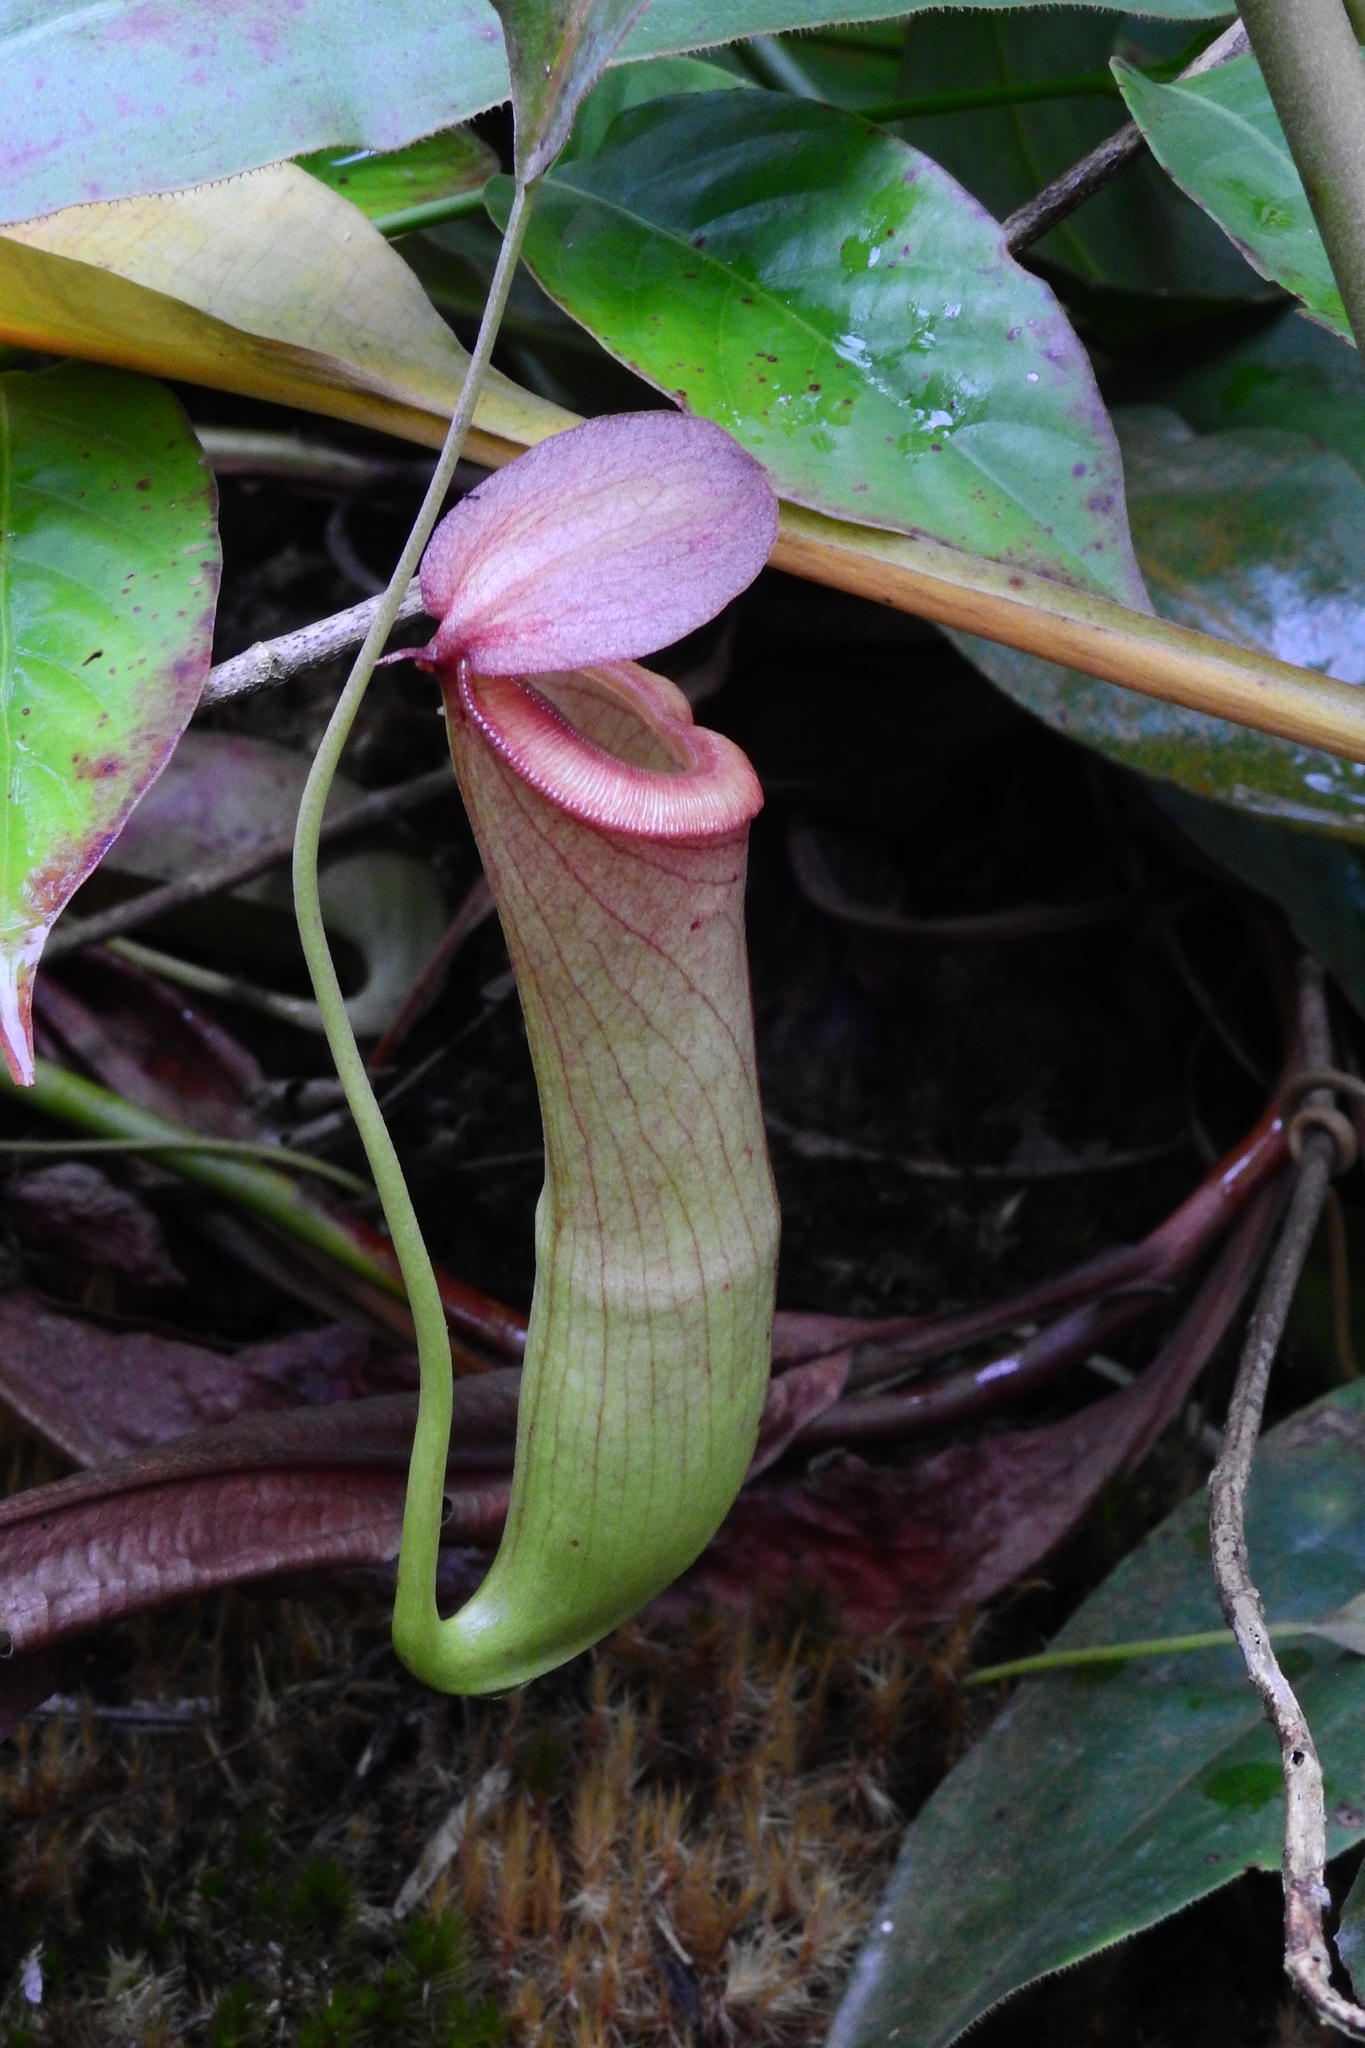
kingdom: Plantae
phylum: Tracheophyta
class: Magnoliopsida
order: Caryophyllales
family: Nepenthaceae
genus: Nepenthes
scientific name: Nepenthes mirabilis
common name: Tropical pitcherplant
